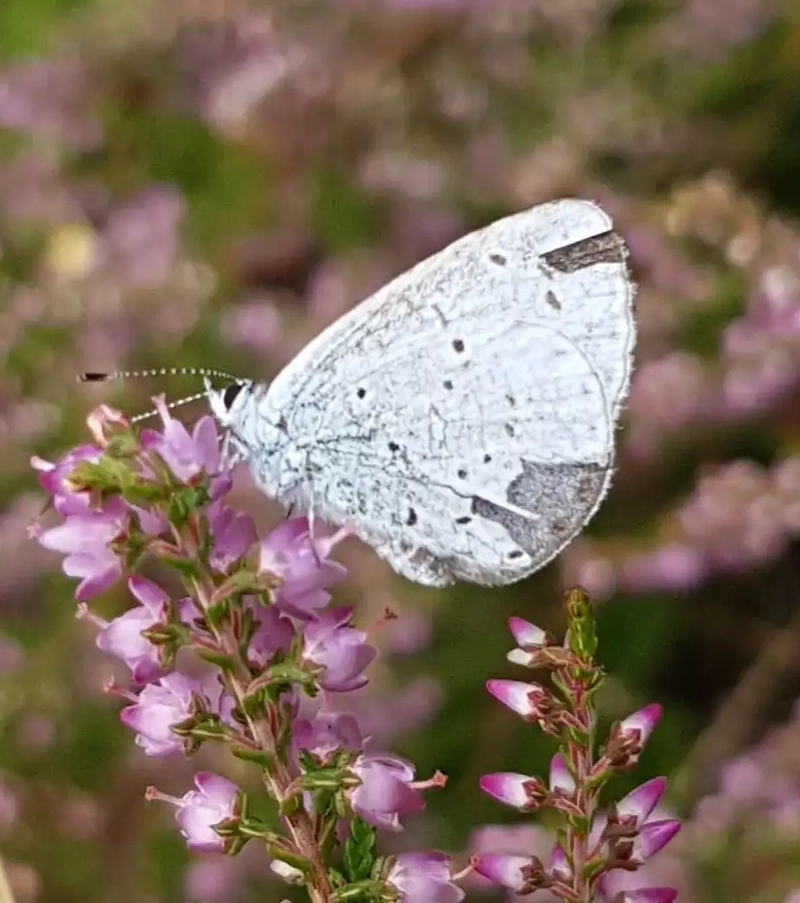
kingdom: Animalia
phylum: Arthropoda
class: Insecta
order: Lepidoptera
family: Lycaenidae
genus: Celastrina
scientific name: Celastrina argiolus
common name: Holly blue
